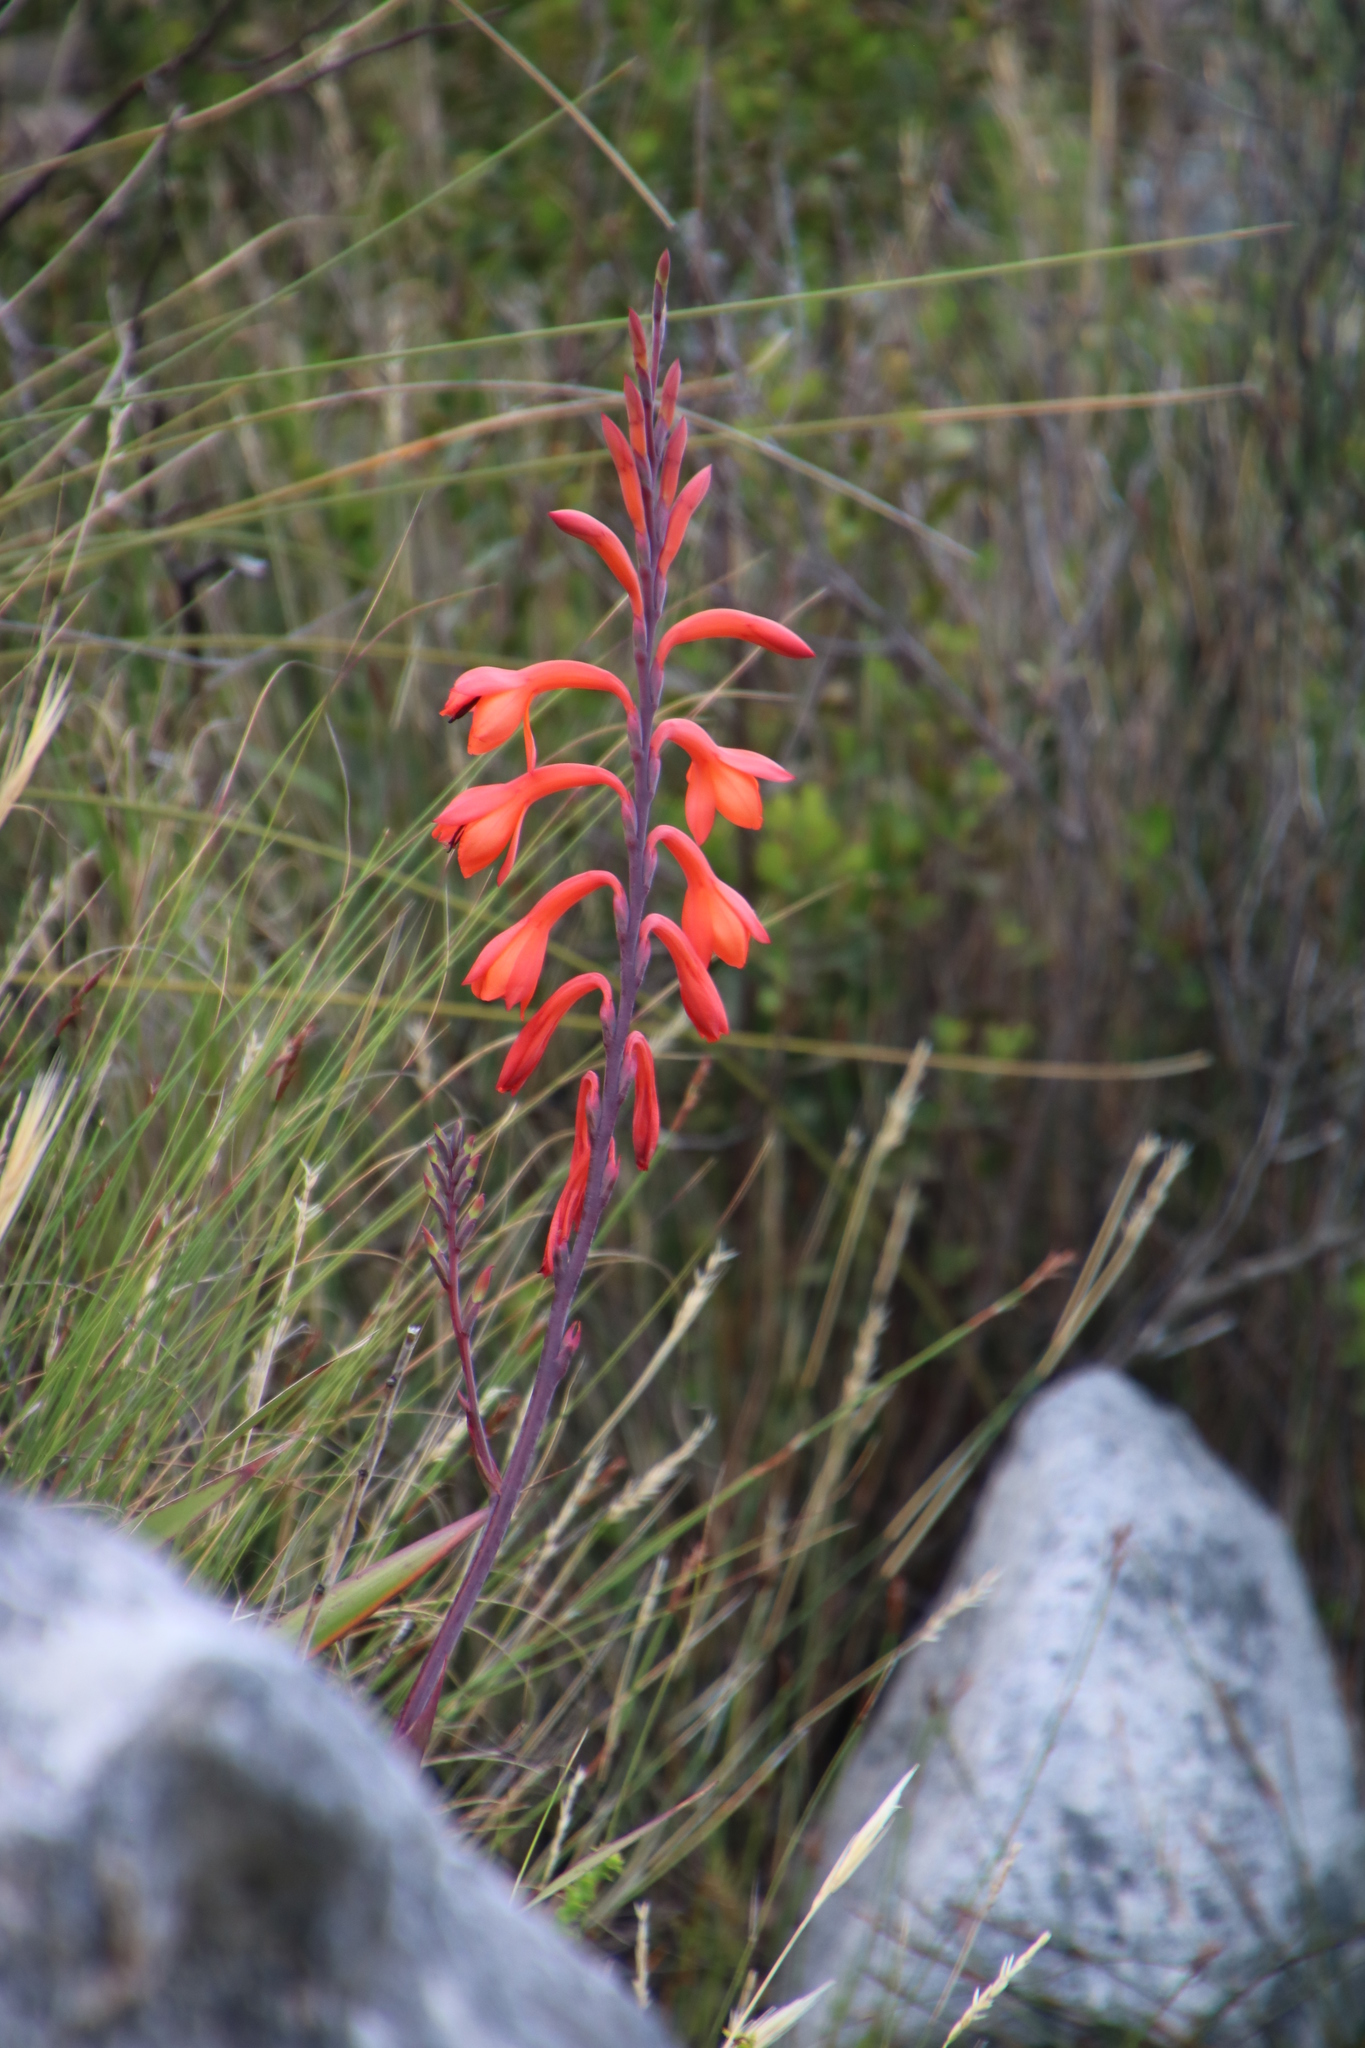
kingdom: Plantae
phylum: Tracheophyta
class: Liliopsida
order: Asparagales
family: Iridaceae
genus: Watsonia
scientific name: Watsonia tabularis
